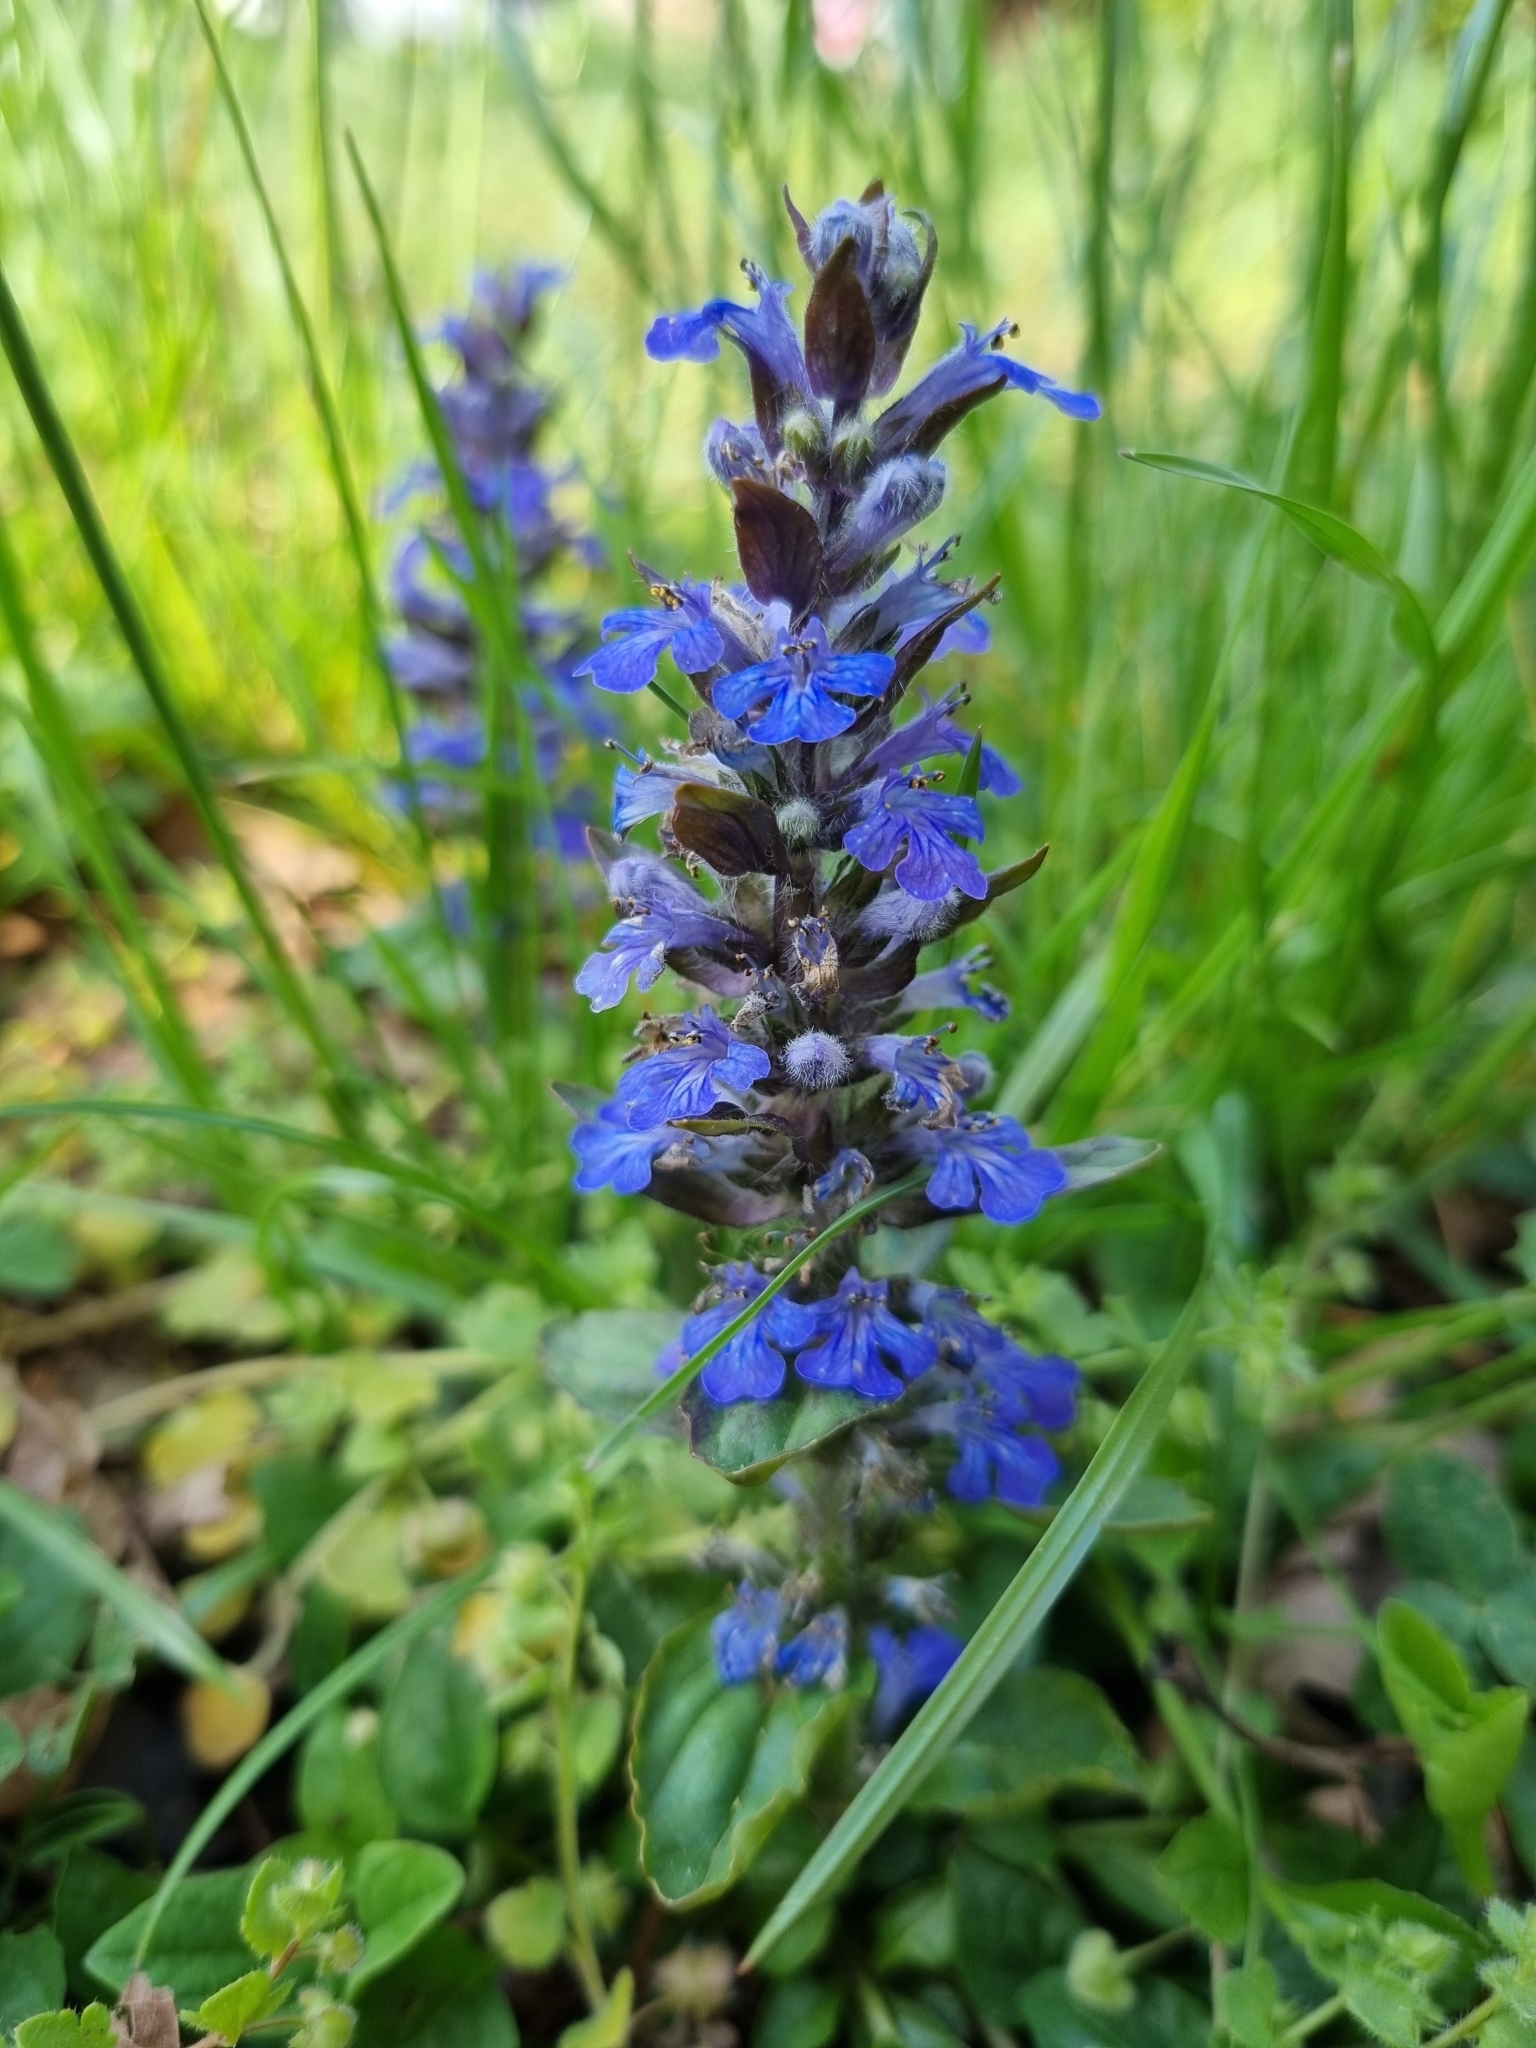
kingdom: Plantae
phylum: Tracheophyta
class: Magnoliopsida
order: Lamiales
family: Lamiaceae
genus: Ajuga
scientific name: Ajuga reptans
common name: Bugle
